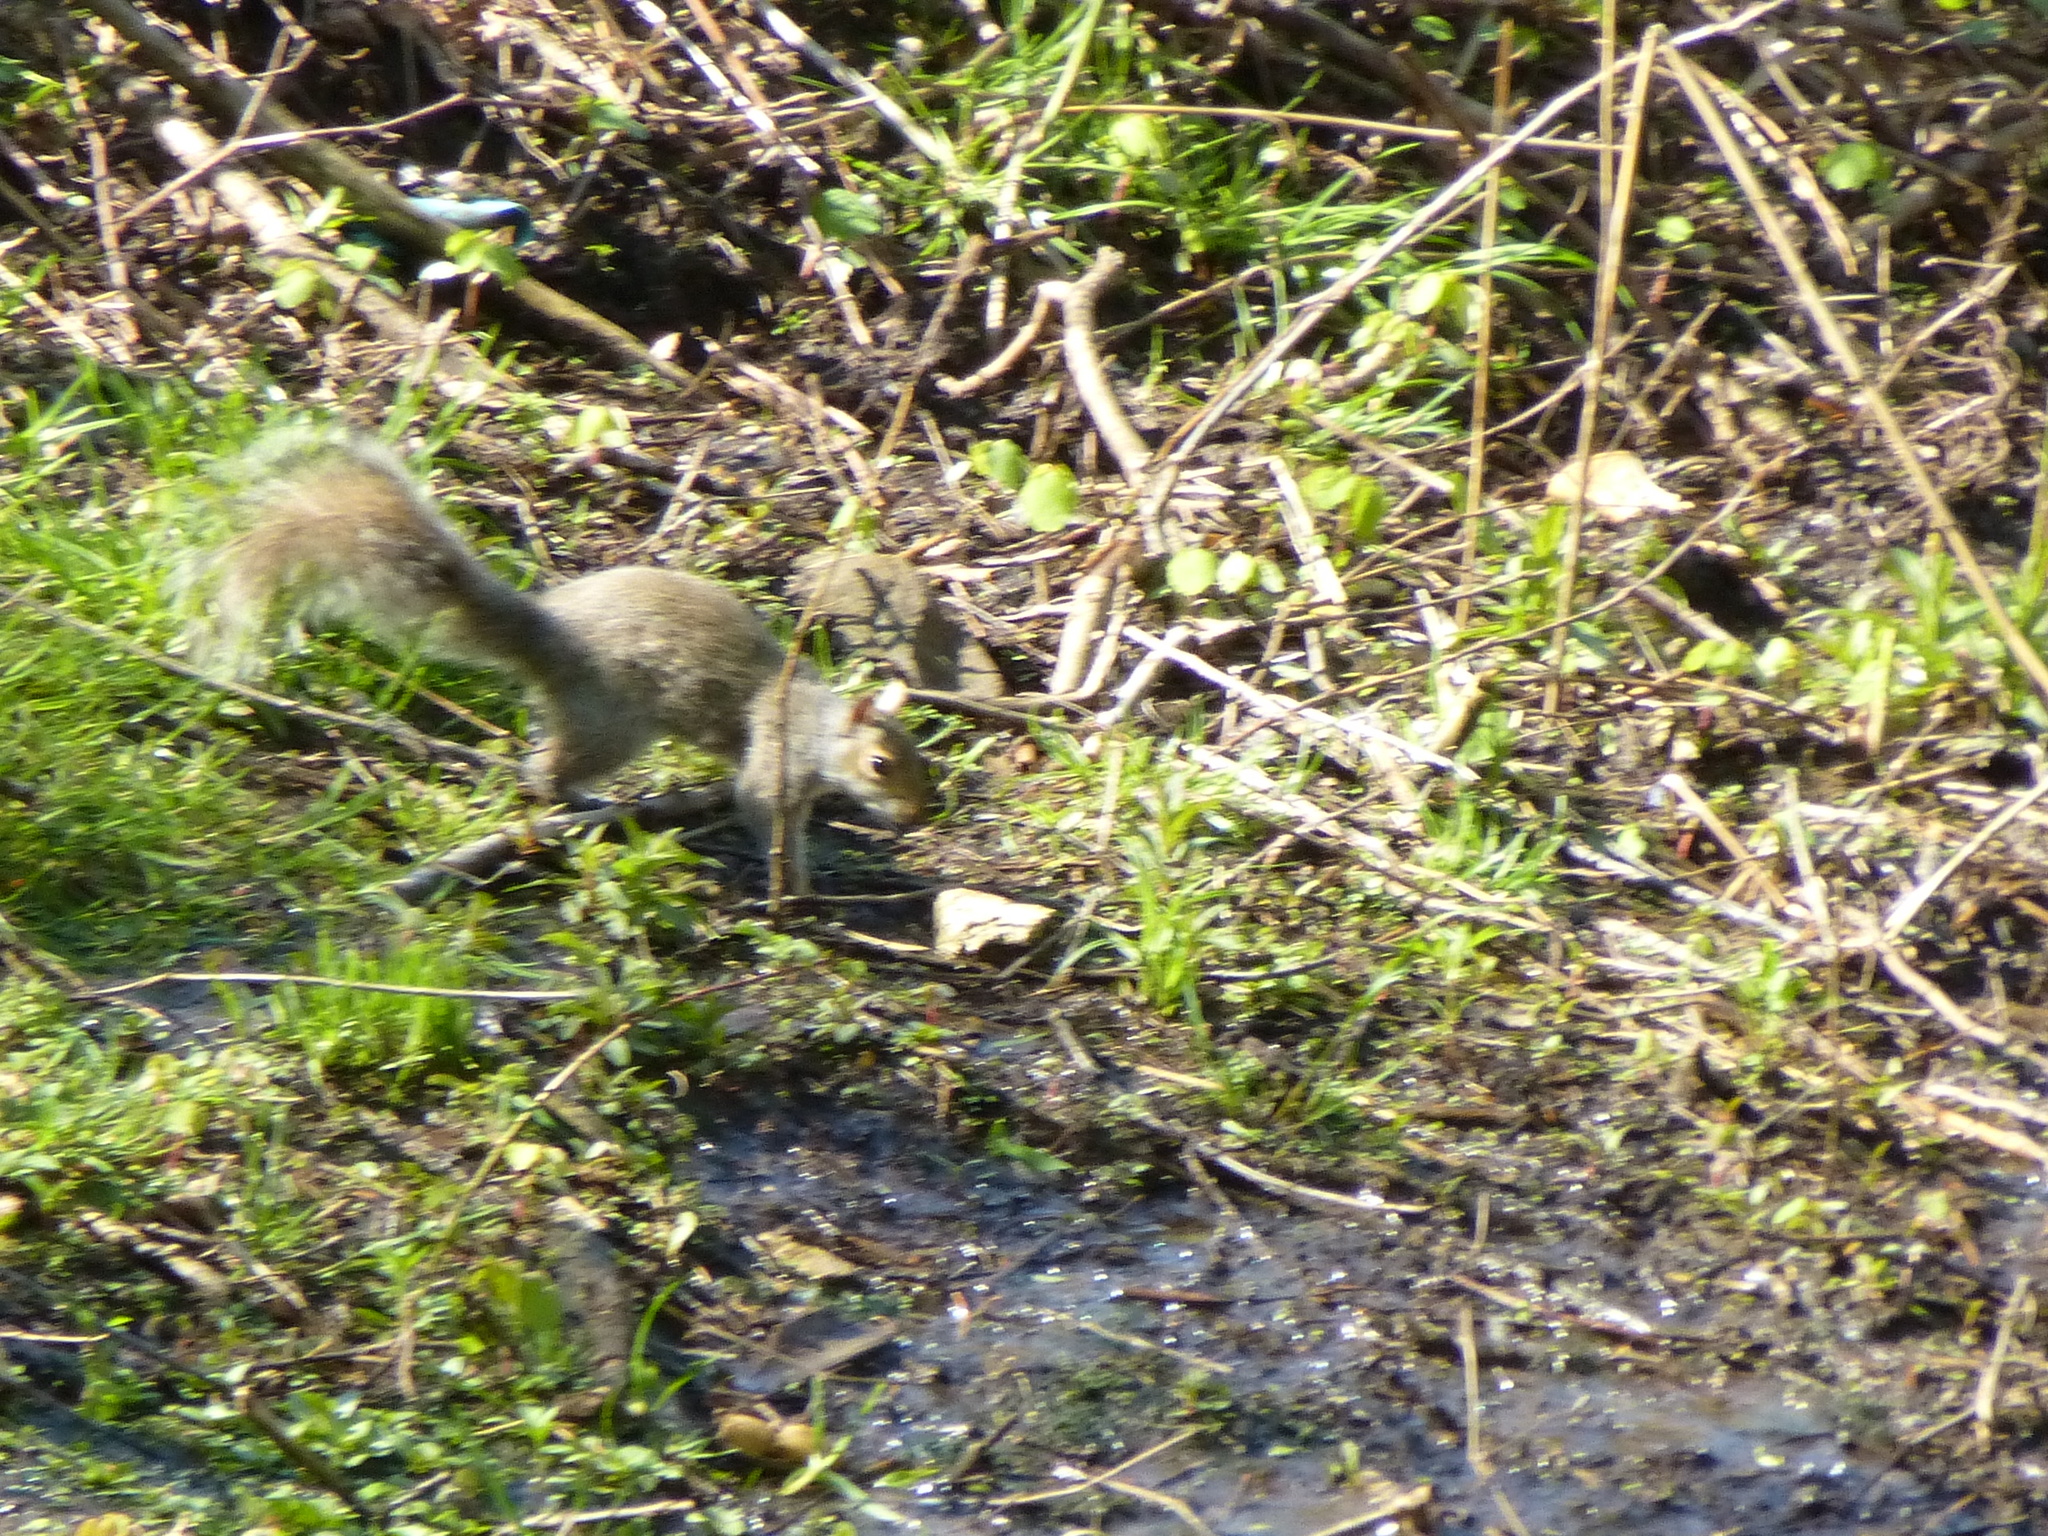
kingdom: Animalia
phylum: Chordata
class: Mammalia
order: Rodentia
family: Sciuridae
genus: Sciurus
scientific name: Sciurus carolinensis
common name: Eastern gray squirrel
